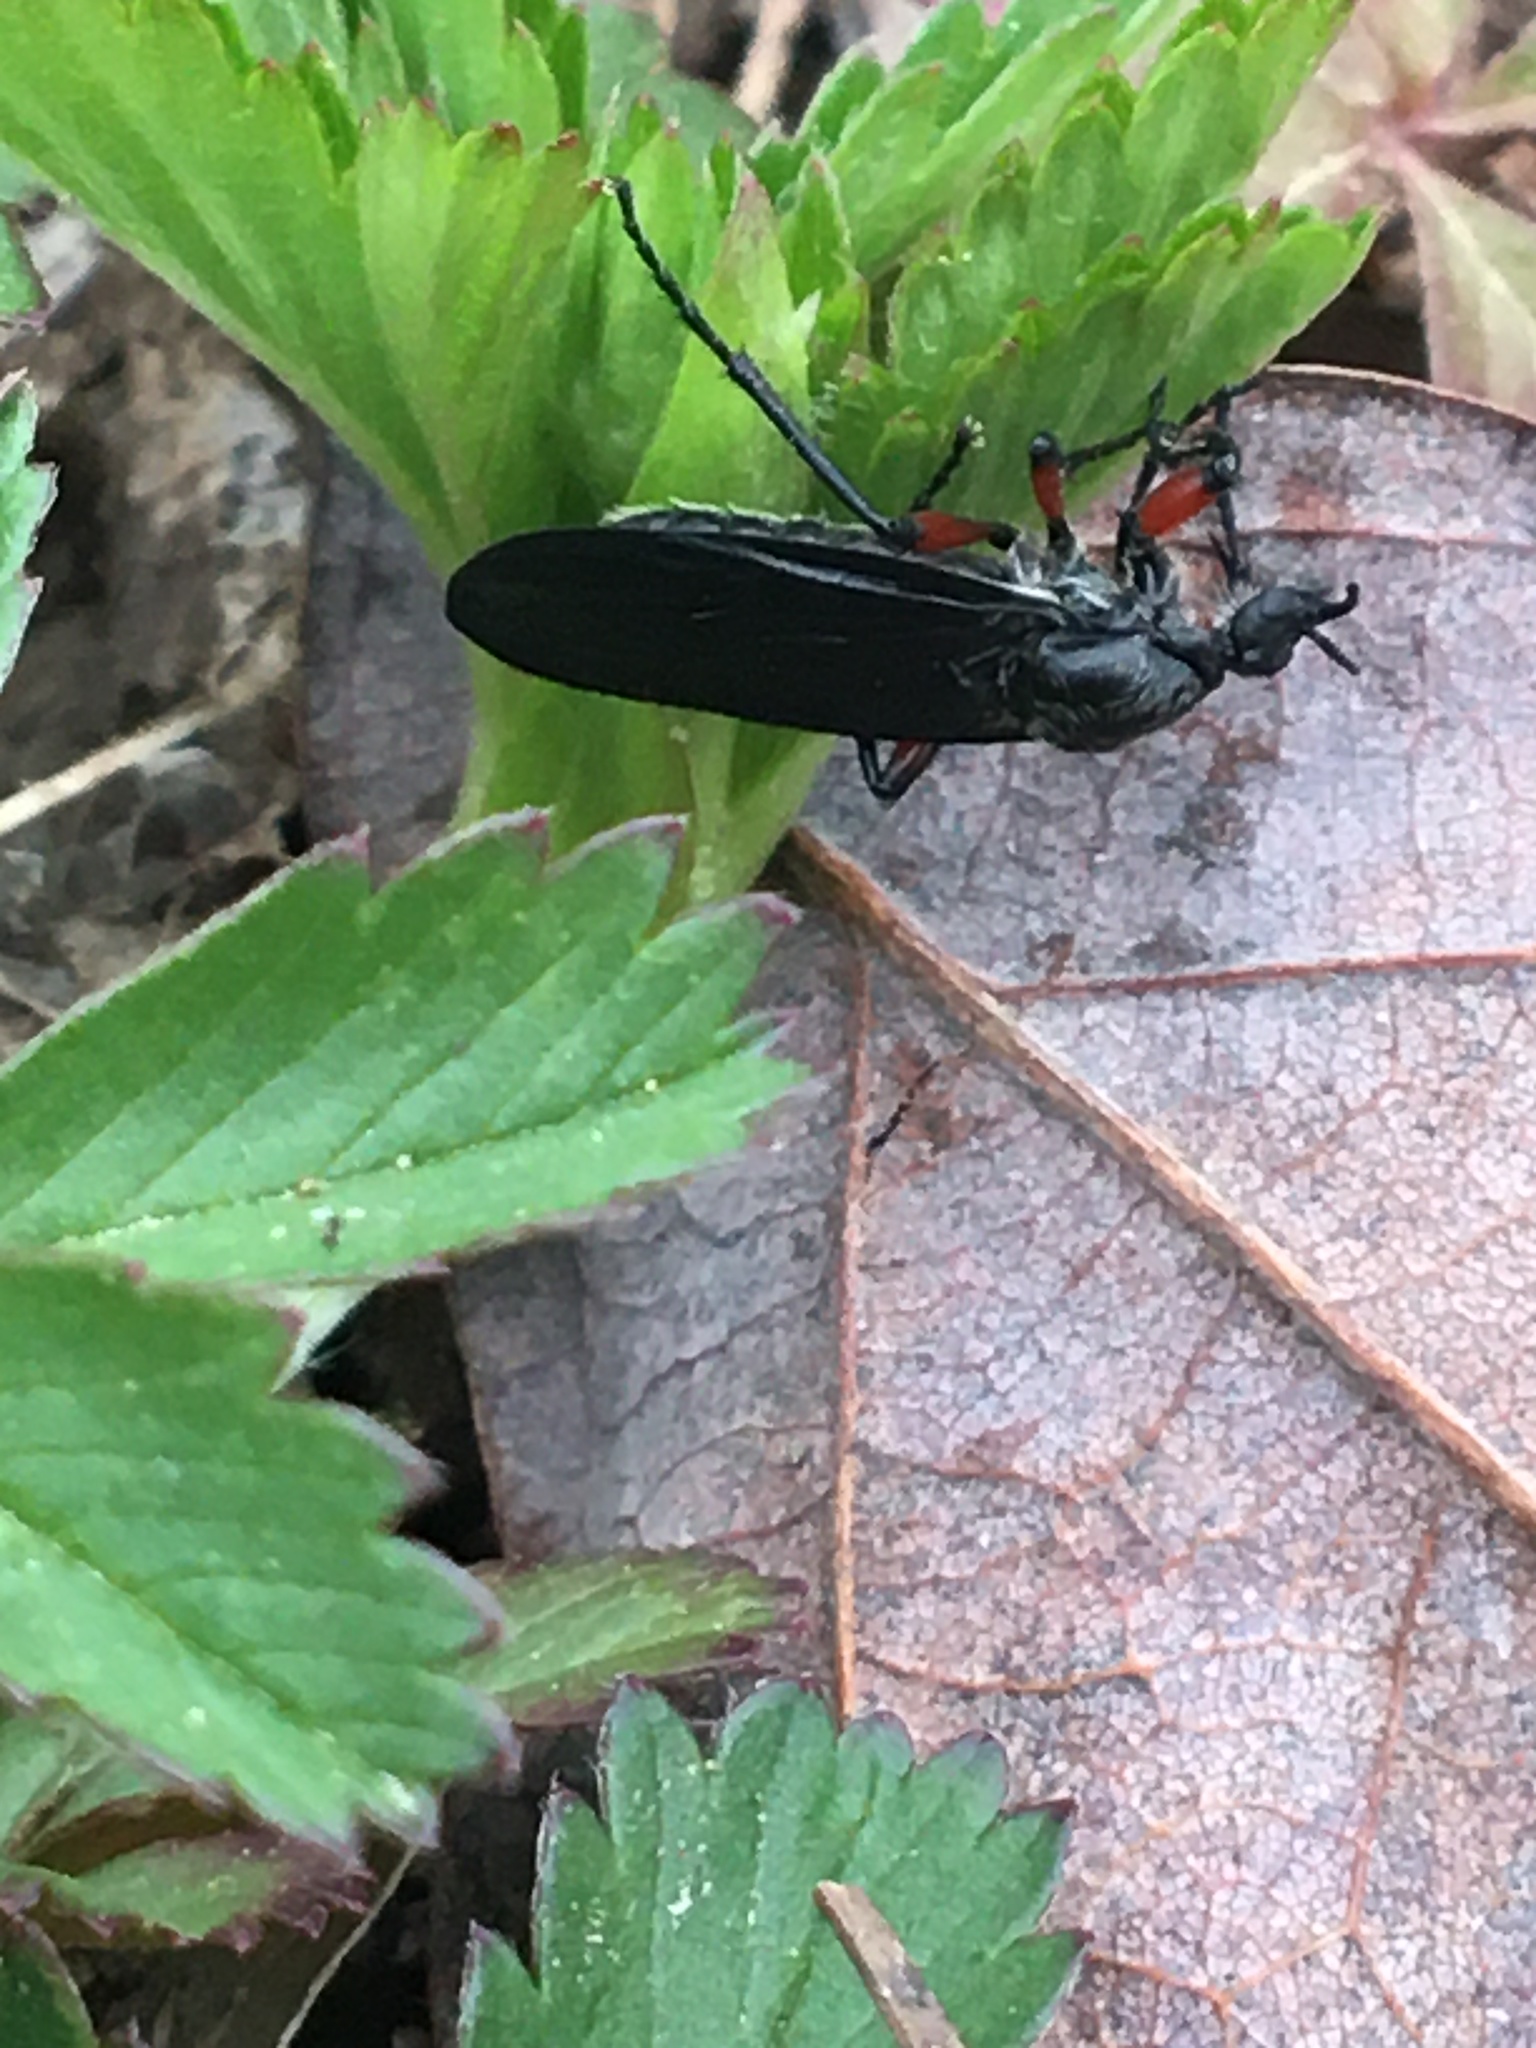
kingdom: Animalia
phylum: Arthropoda
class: Insecta
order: Diptera
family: Bibionidae
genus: Bibio
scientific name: Bibio femoratus
